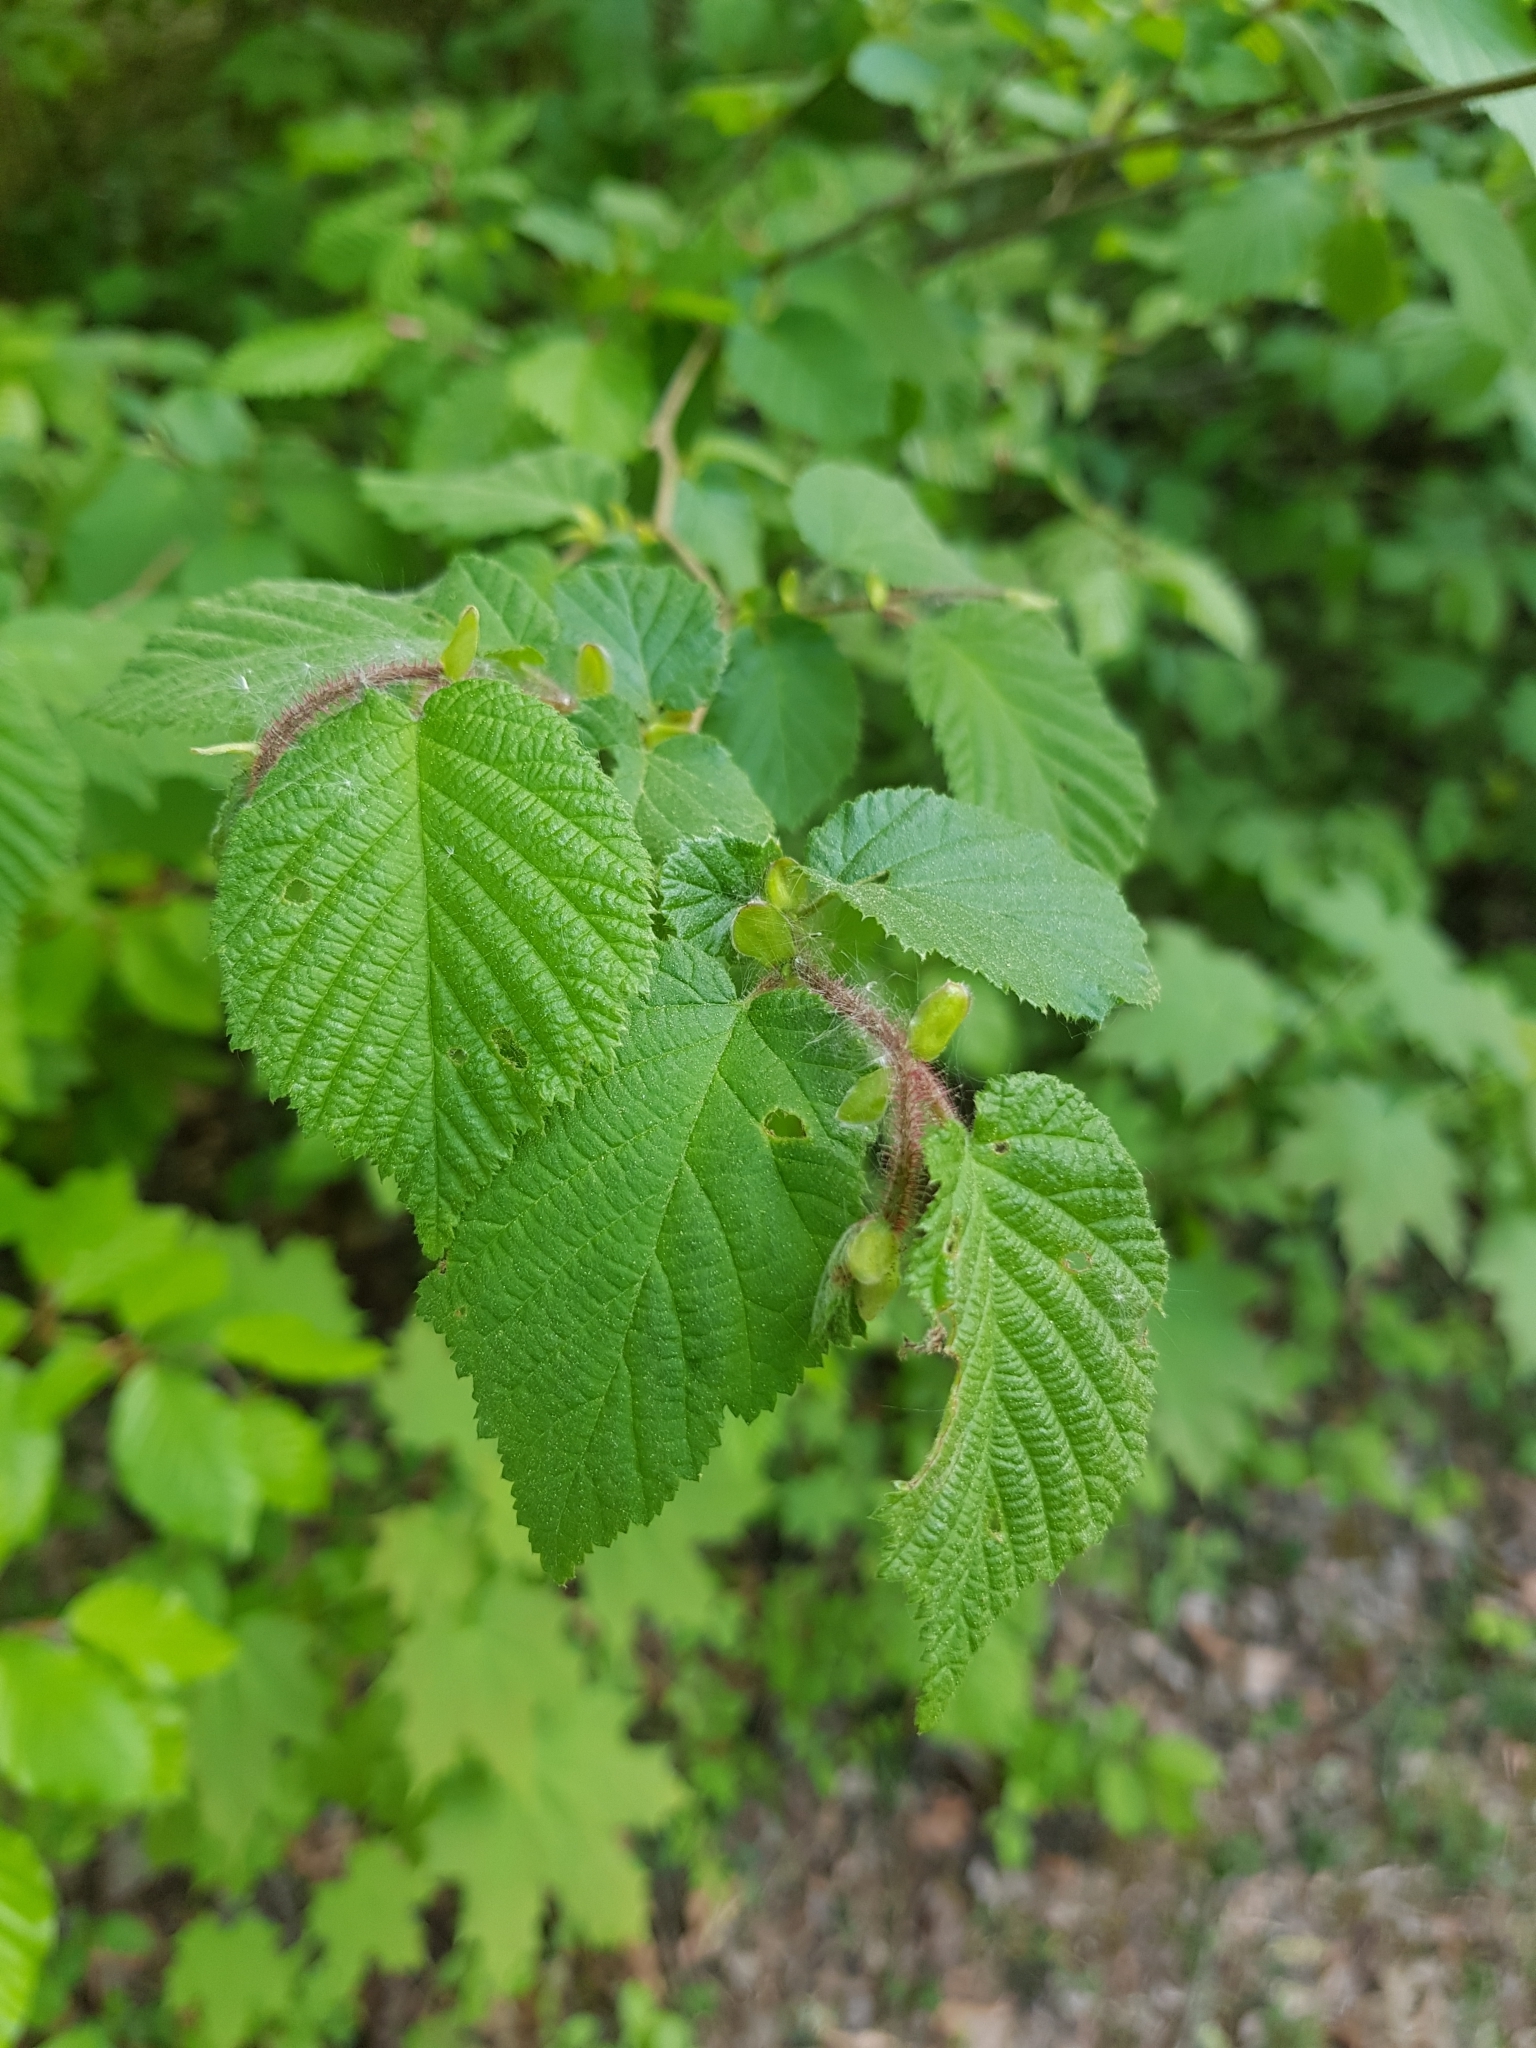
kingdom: Plantae
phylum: Tracheophyta
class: Magnoliopsida
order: Fagales
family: Betulaceae
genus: Corylus
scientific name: Corylus avellana
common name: European hazel
